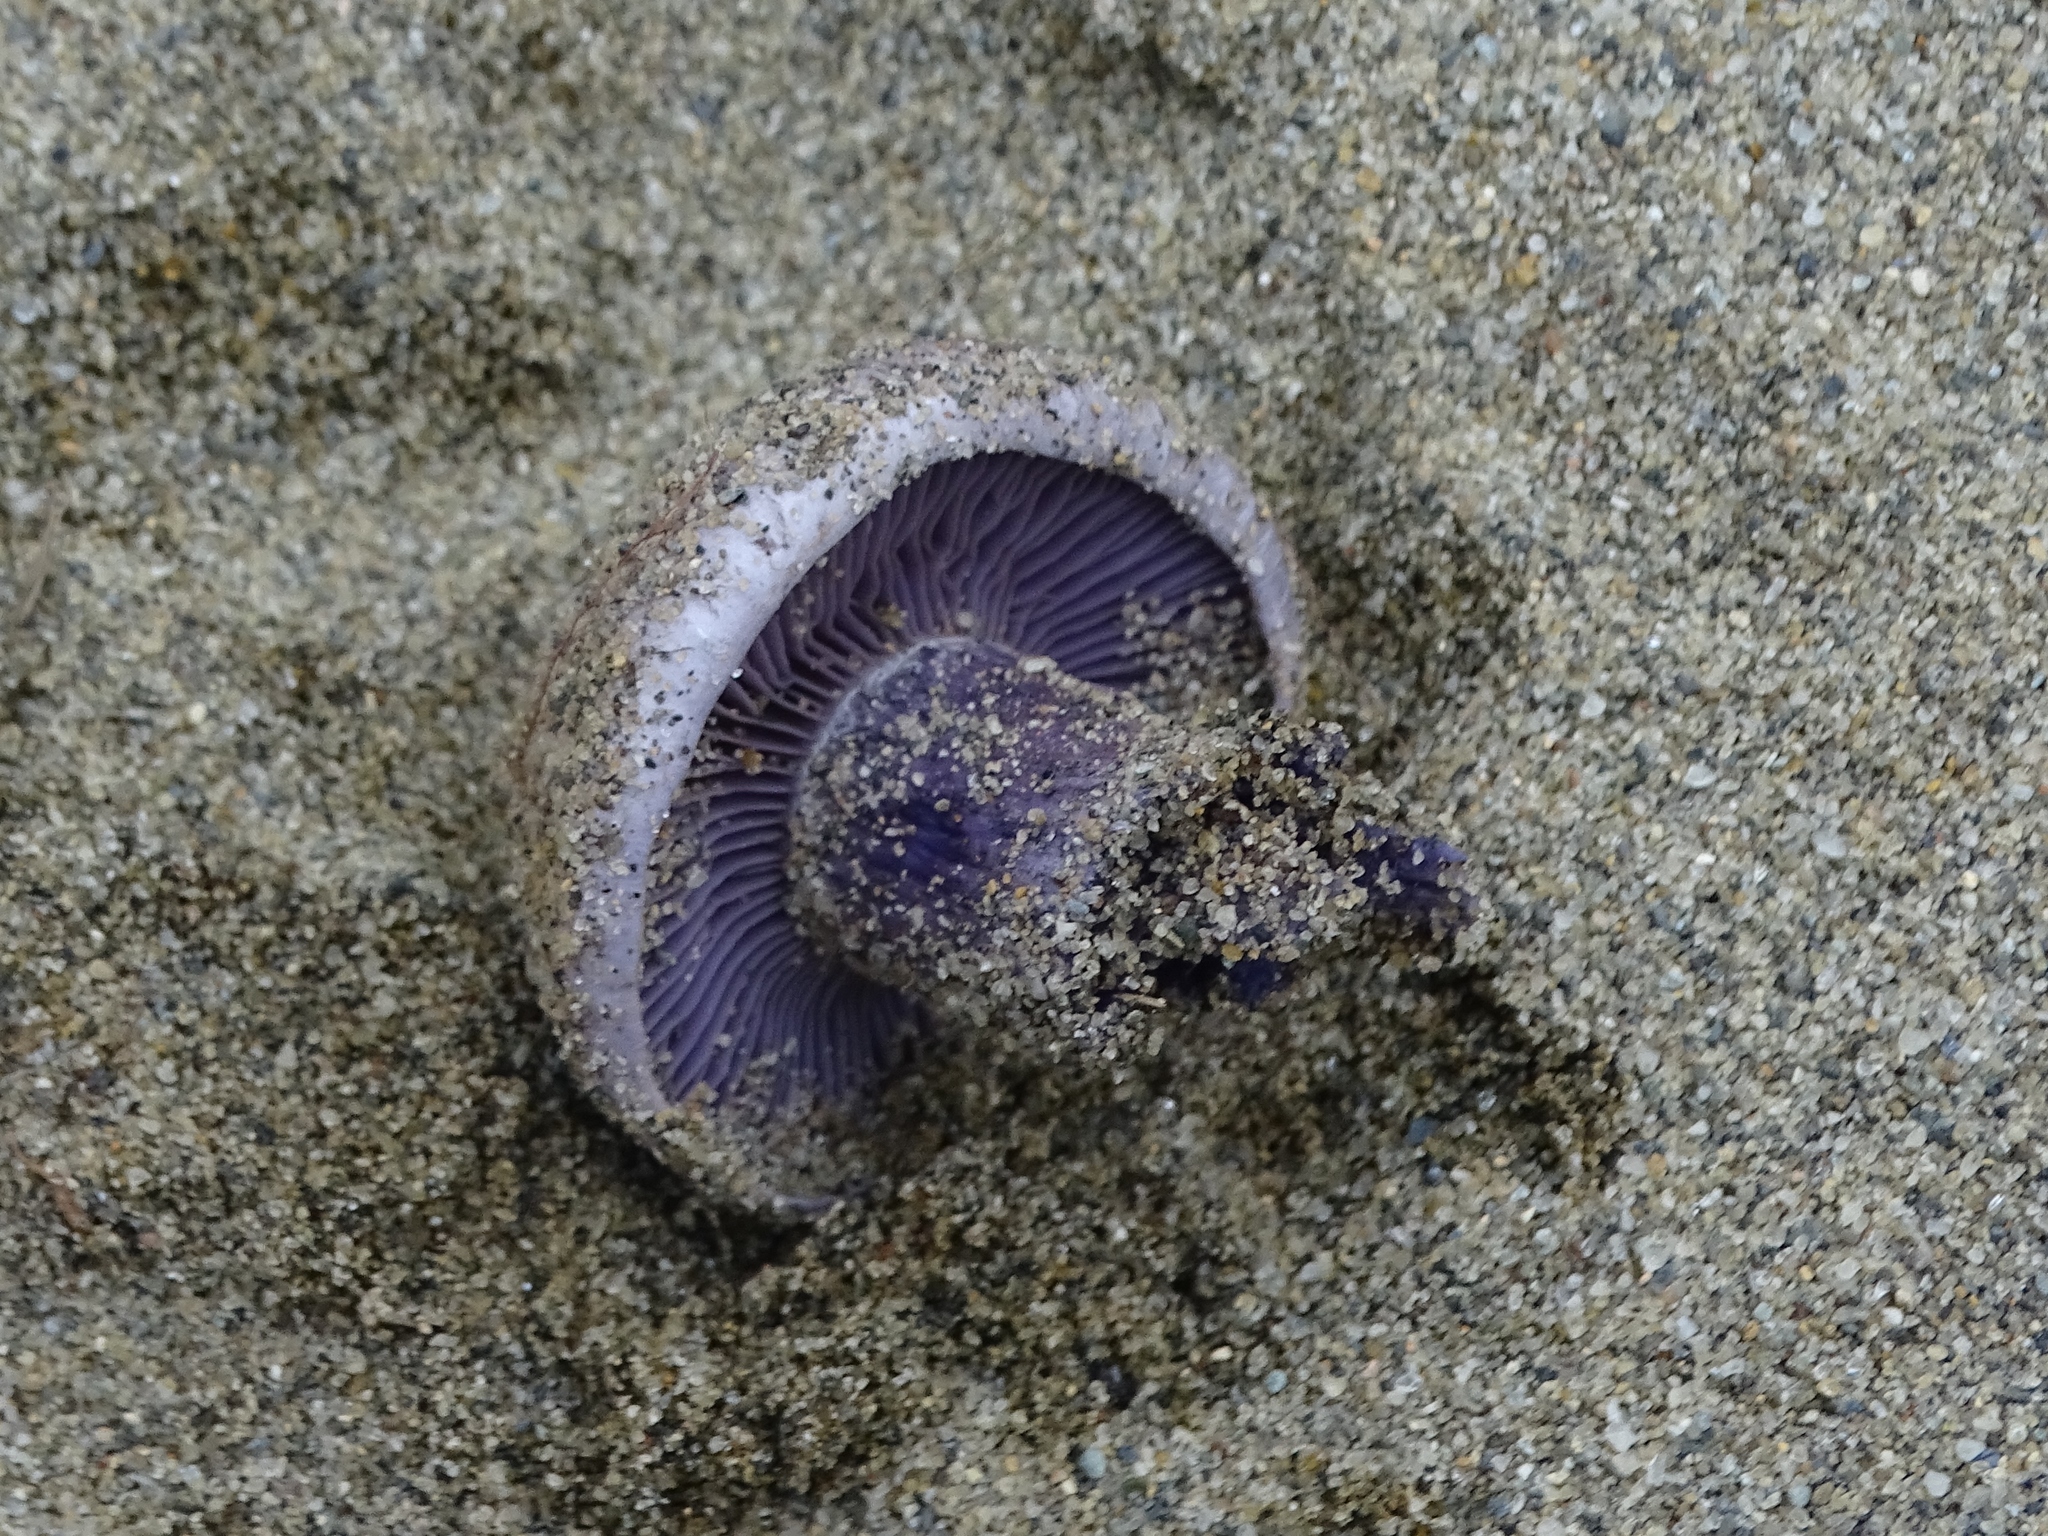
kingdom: Fungi
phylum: Basidiomycota
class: Agaricomycetes
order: Agaricales
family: Hydnangiaceae
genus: Laccaria
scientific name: Laccaria trullissata
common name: Sandy laccaria
